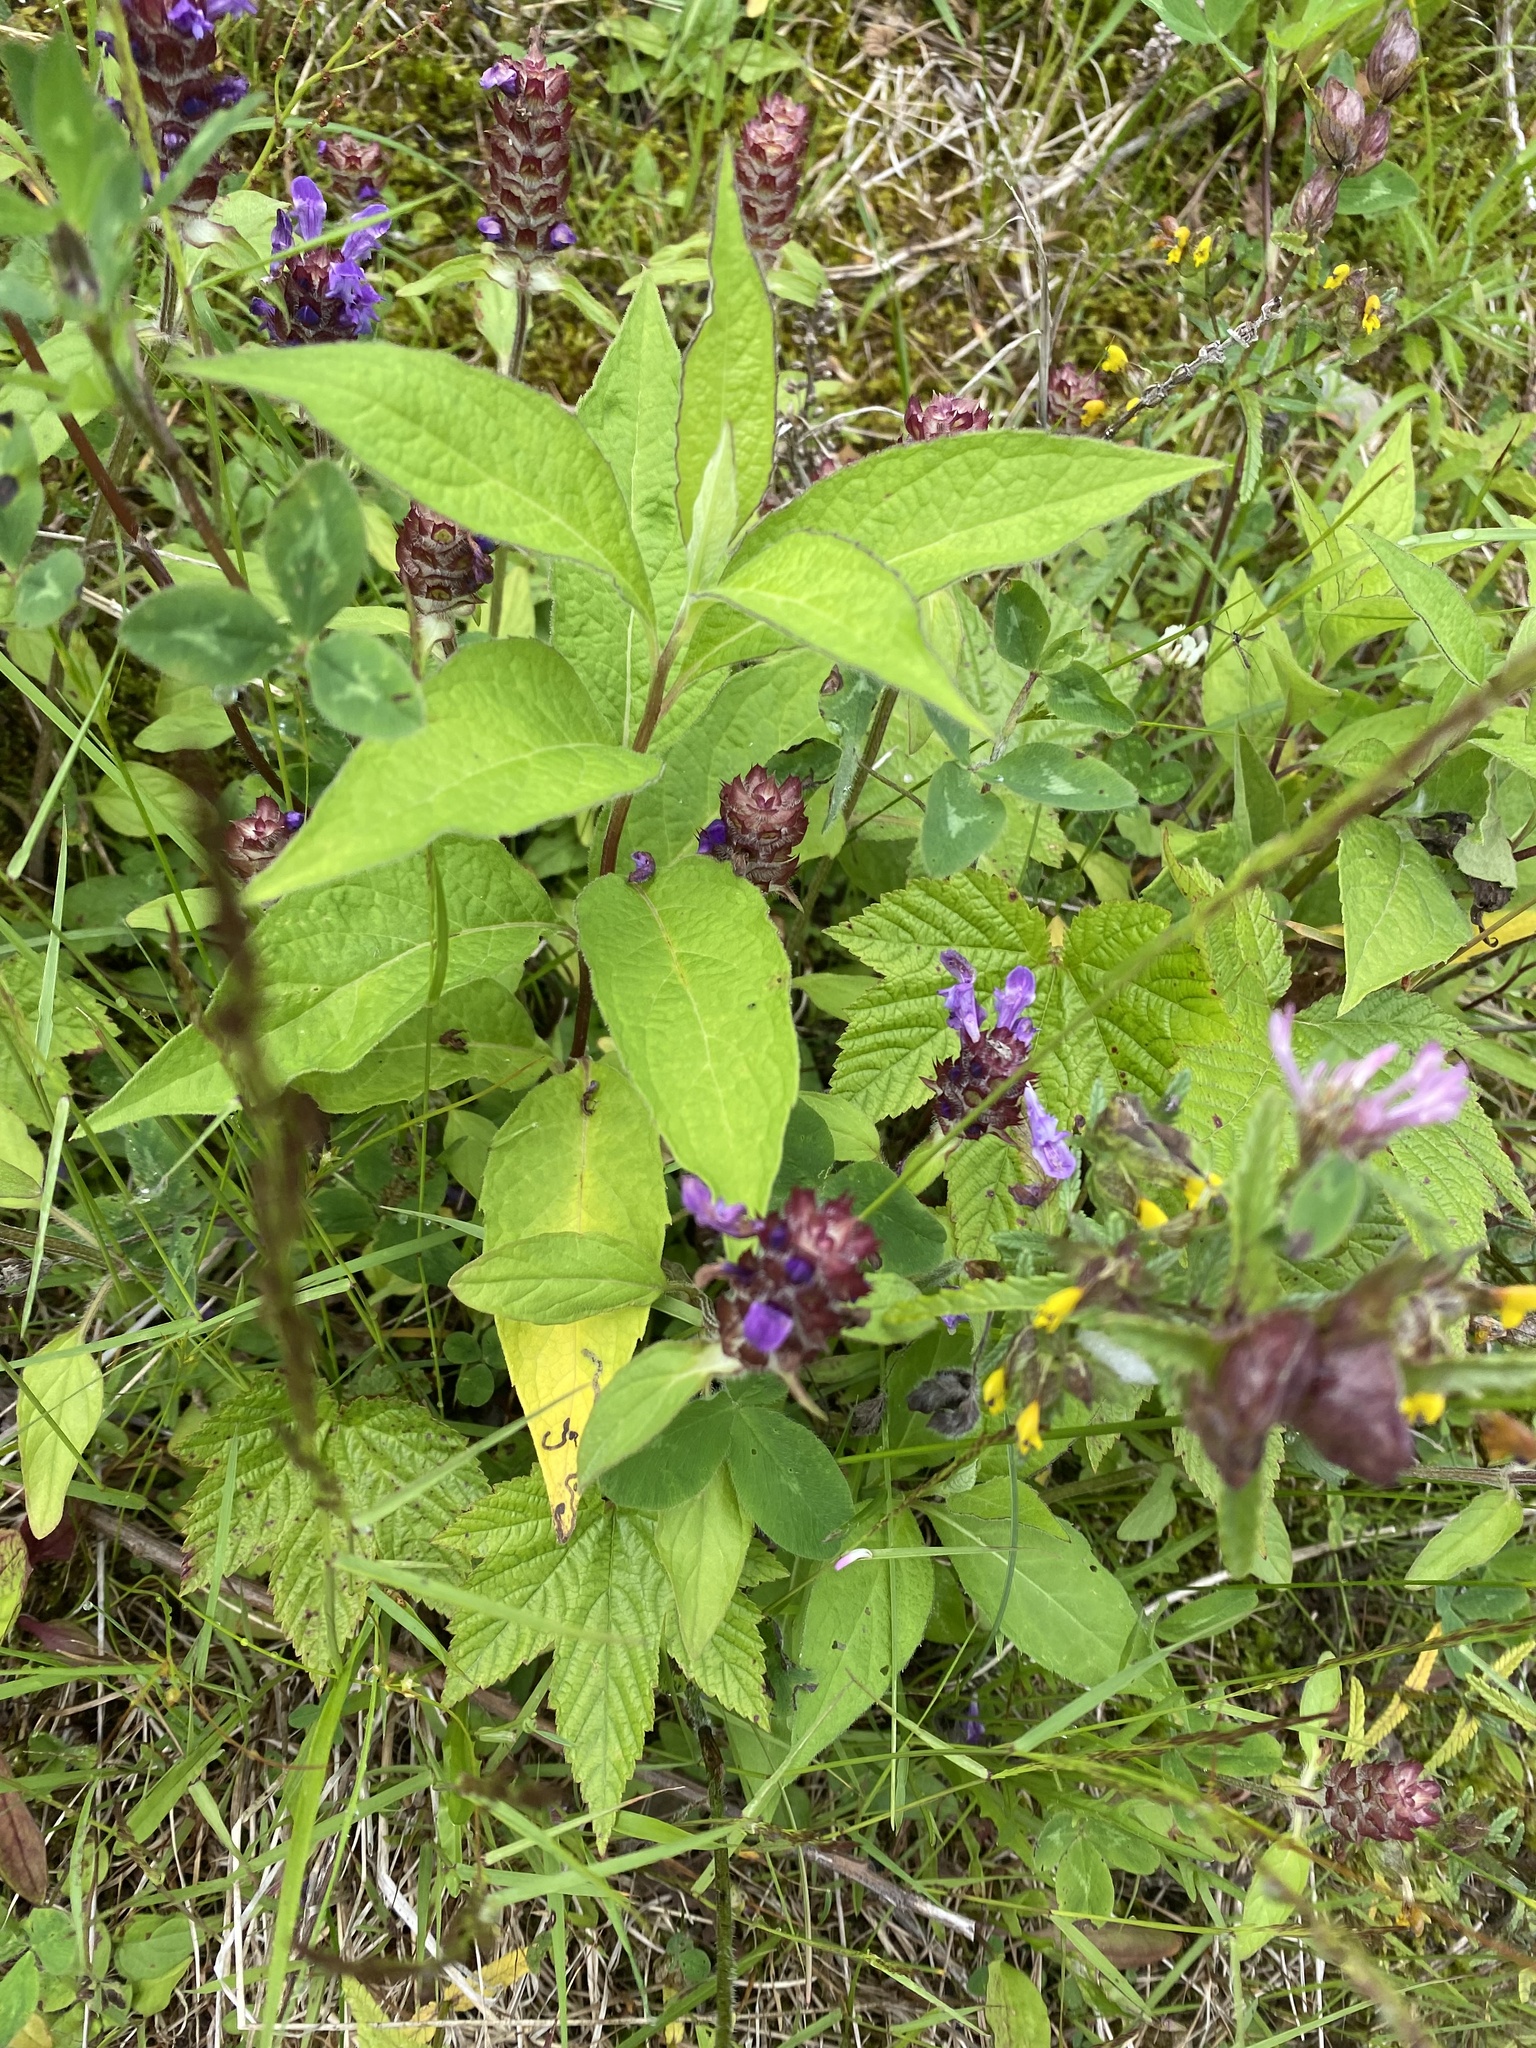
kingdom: Plantae
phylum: Tracheophyta
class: Magnoliopsida
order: Lamiales
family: Lamiaceae
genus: Prunella
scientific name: Prunella vulgaris
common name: Heal-all
